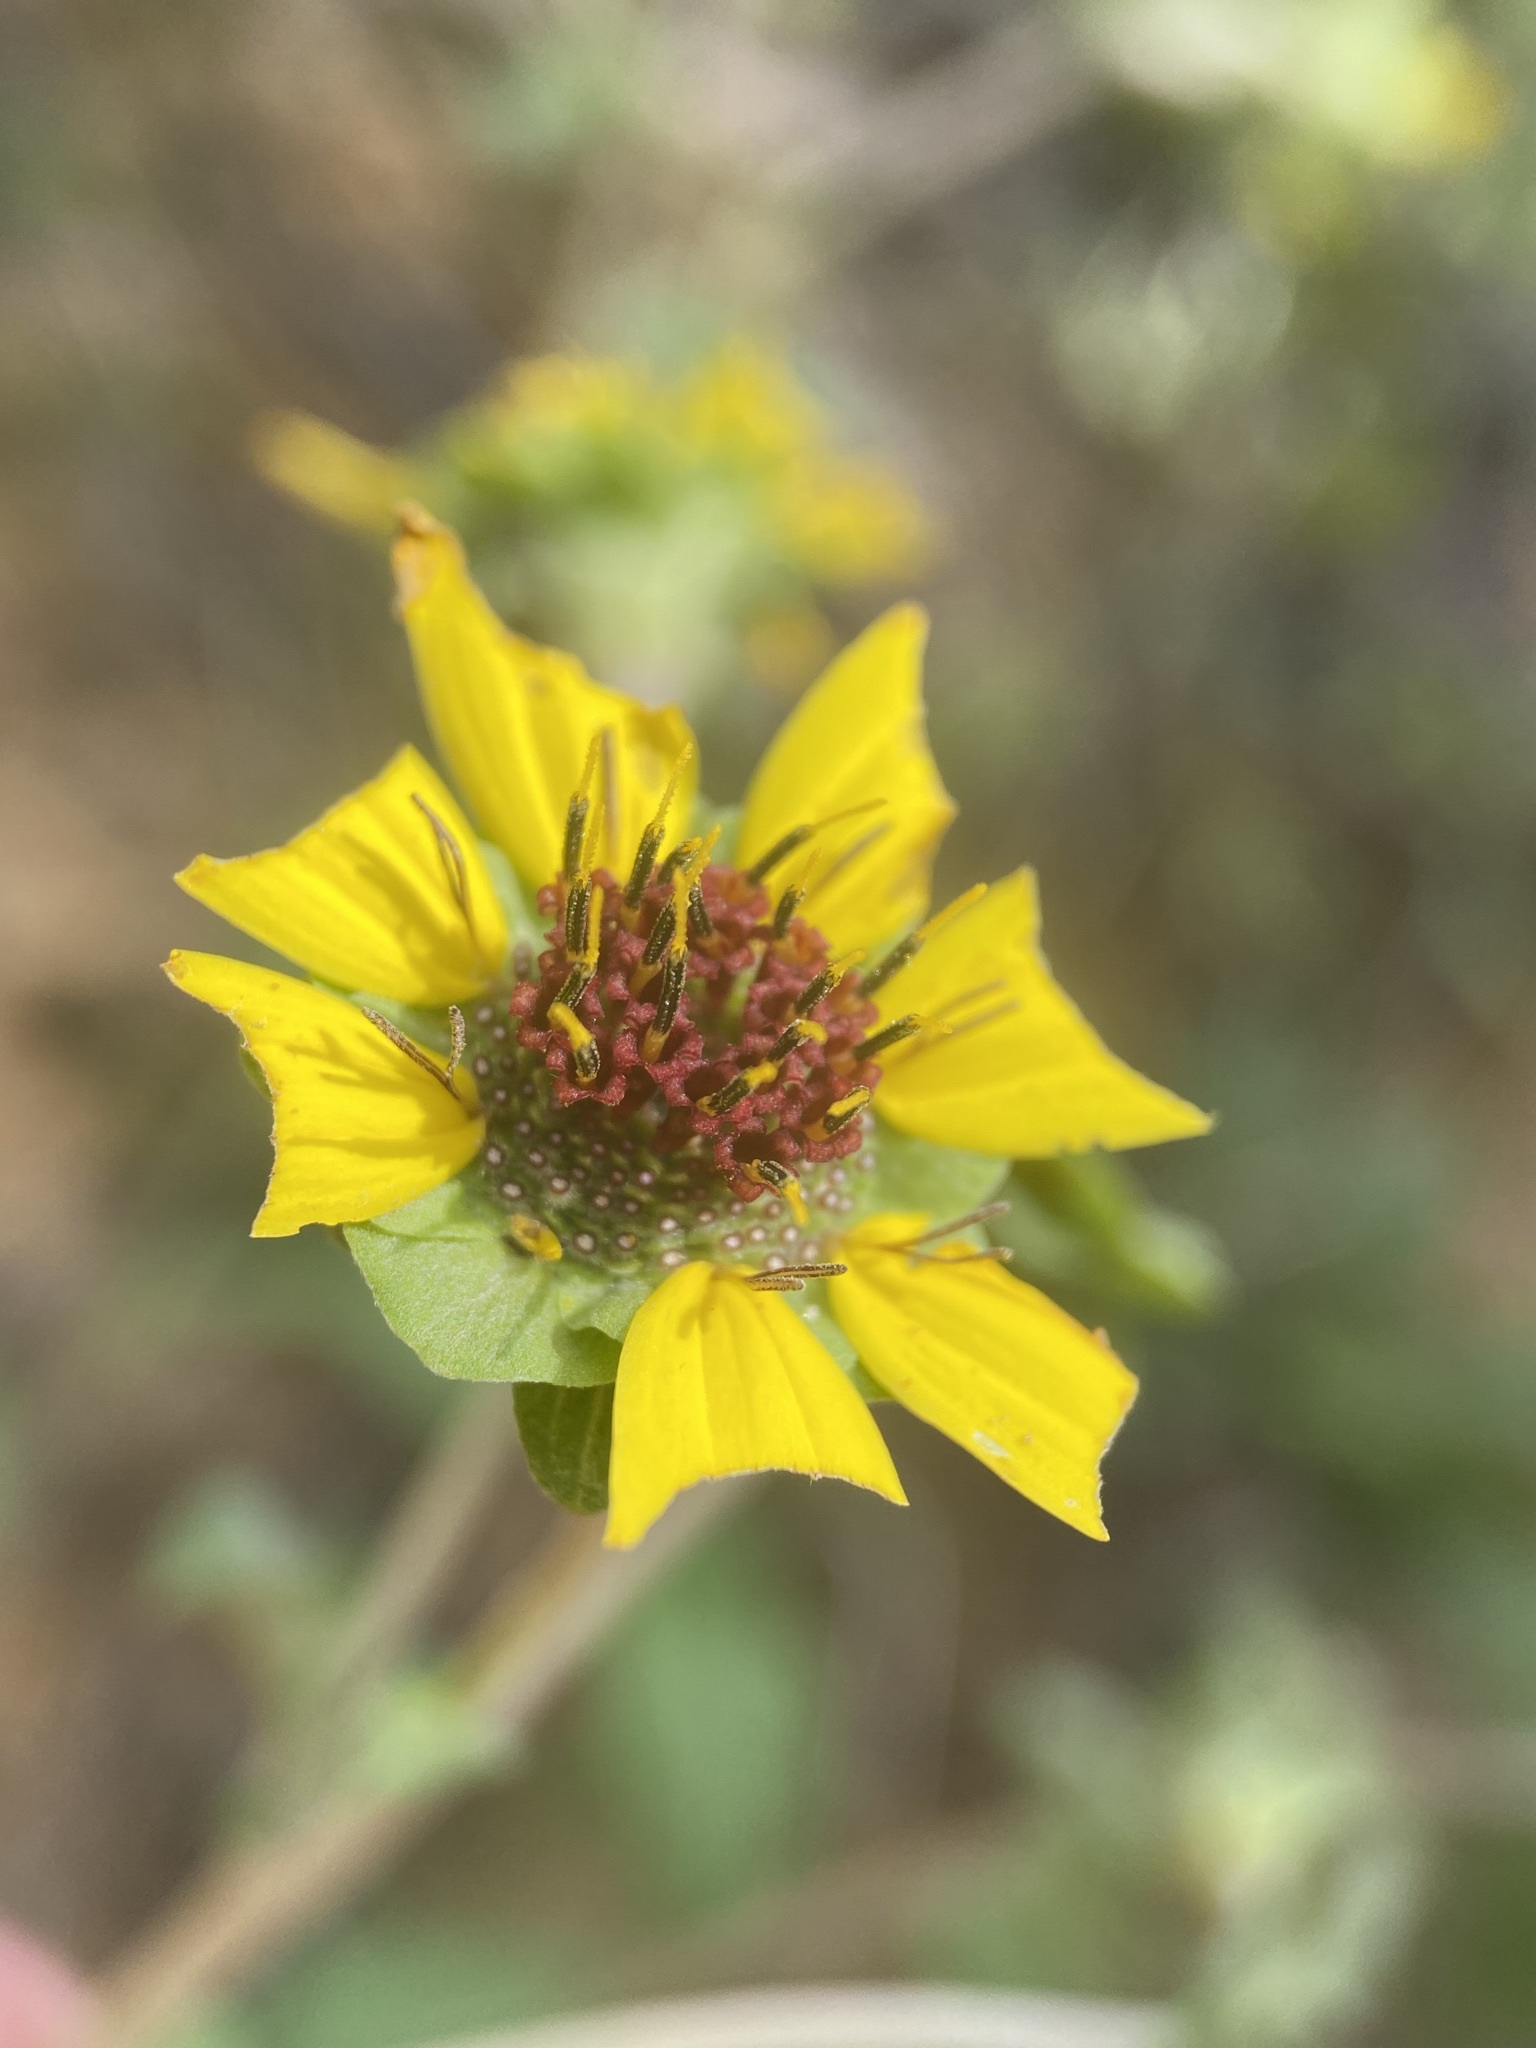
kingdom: Plantae
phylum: Tracheophyta
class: Magnoliopsida
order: Asterales
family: Asteraceae
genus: Berlandiera
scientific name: Berlandiera pumila
